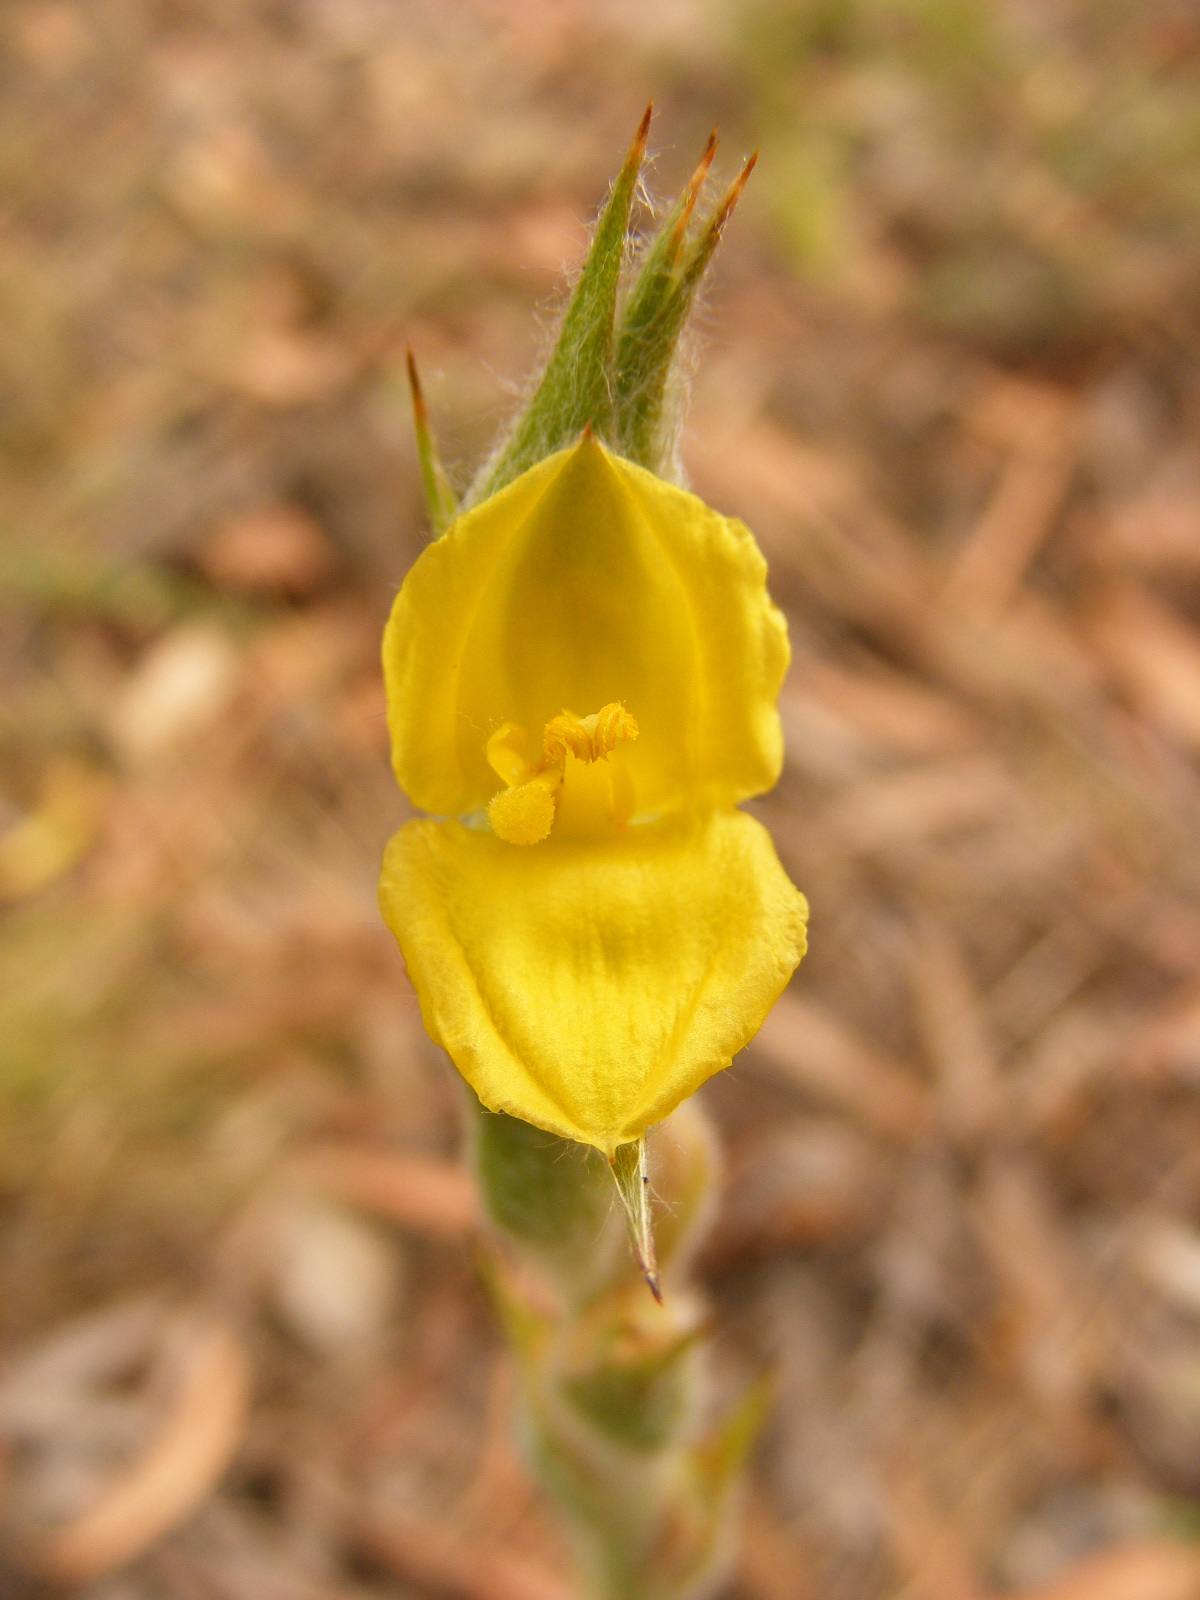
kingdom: Plantae
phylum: Tracheophyta
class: Liliopsida
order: Commelinales
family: Philydraceae
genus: Philydrum
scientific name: Philydrum lanuginosum
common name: Woolly frog's mouth
